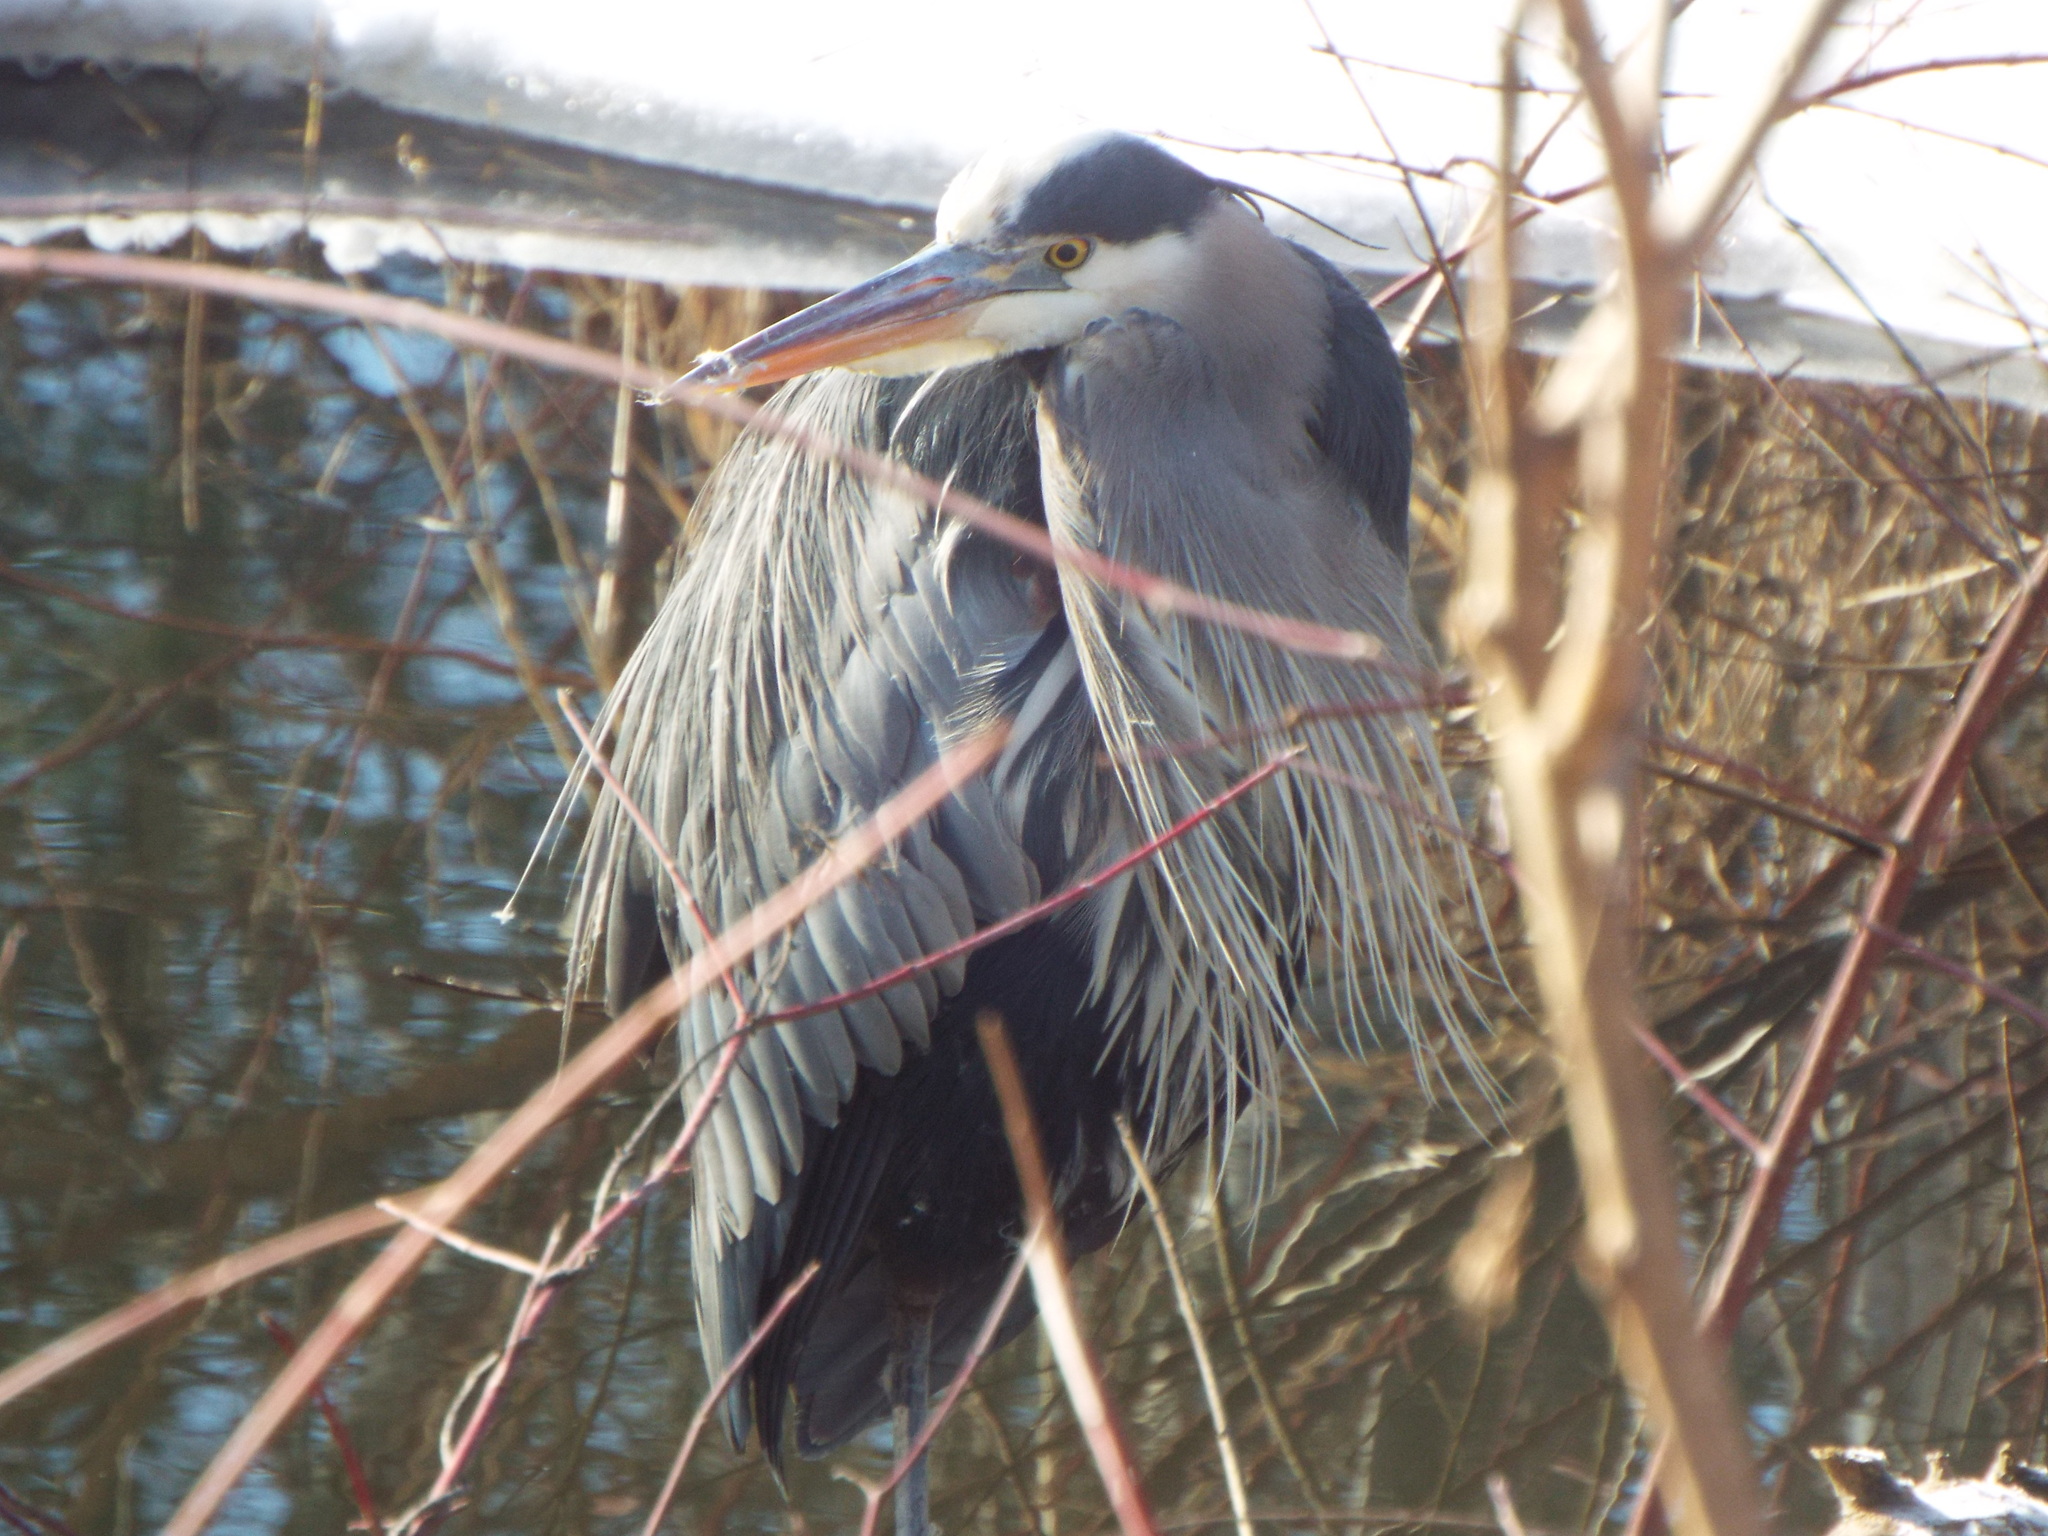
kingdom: Animalia
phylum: Chordata
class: Aves
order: Pelecaniformes
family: Ardeidae
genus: Ardea
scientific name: Ardea herodias
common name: Great blue heron
